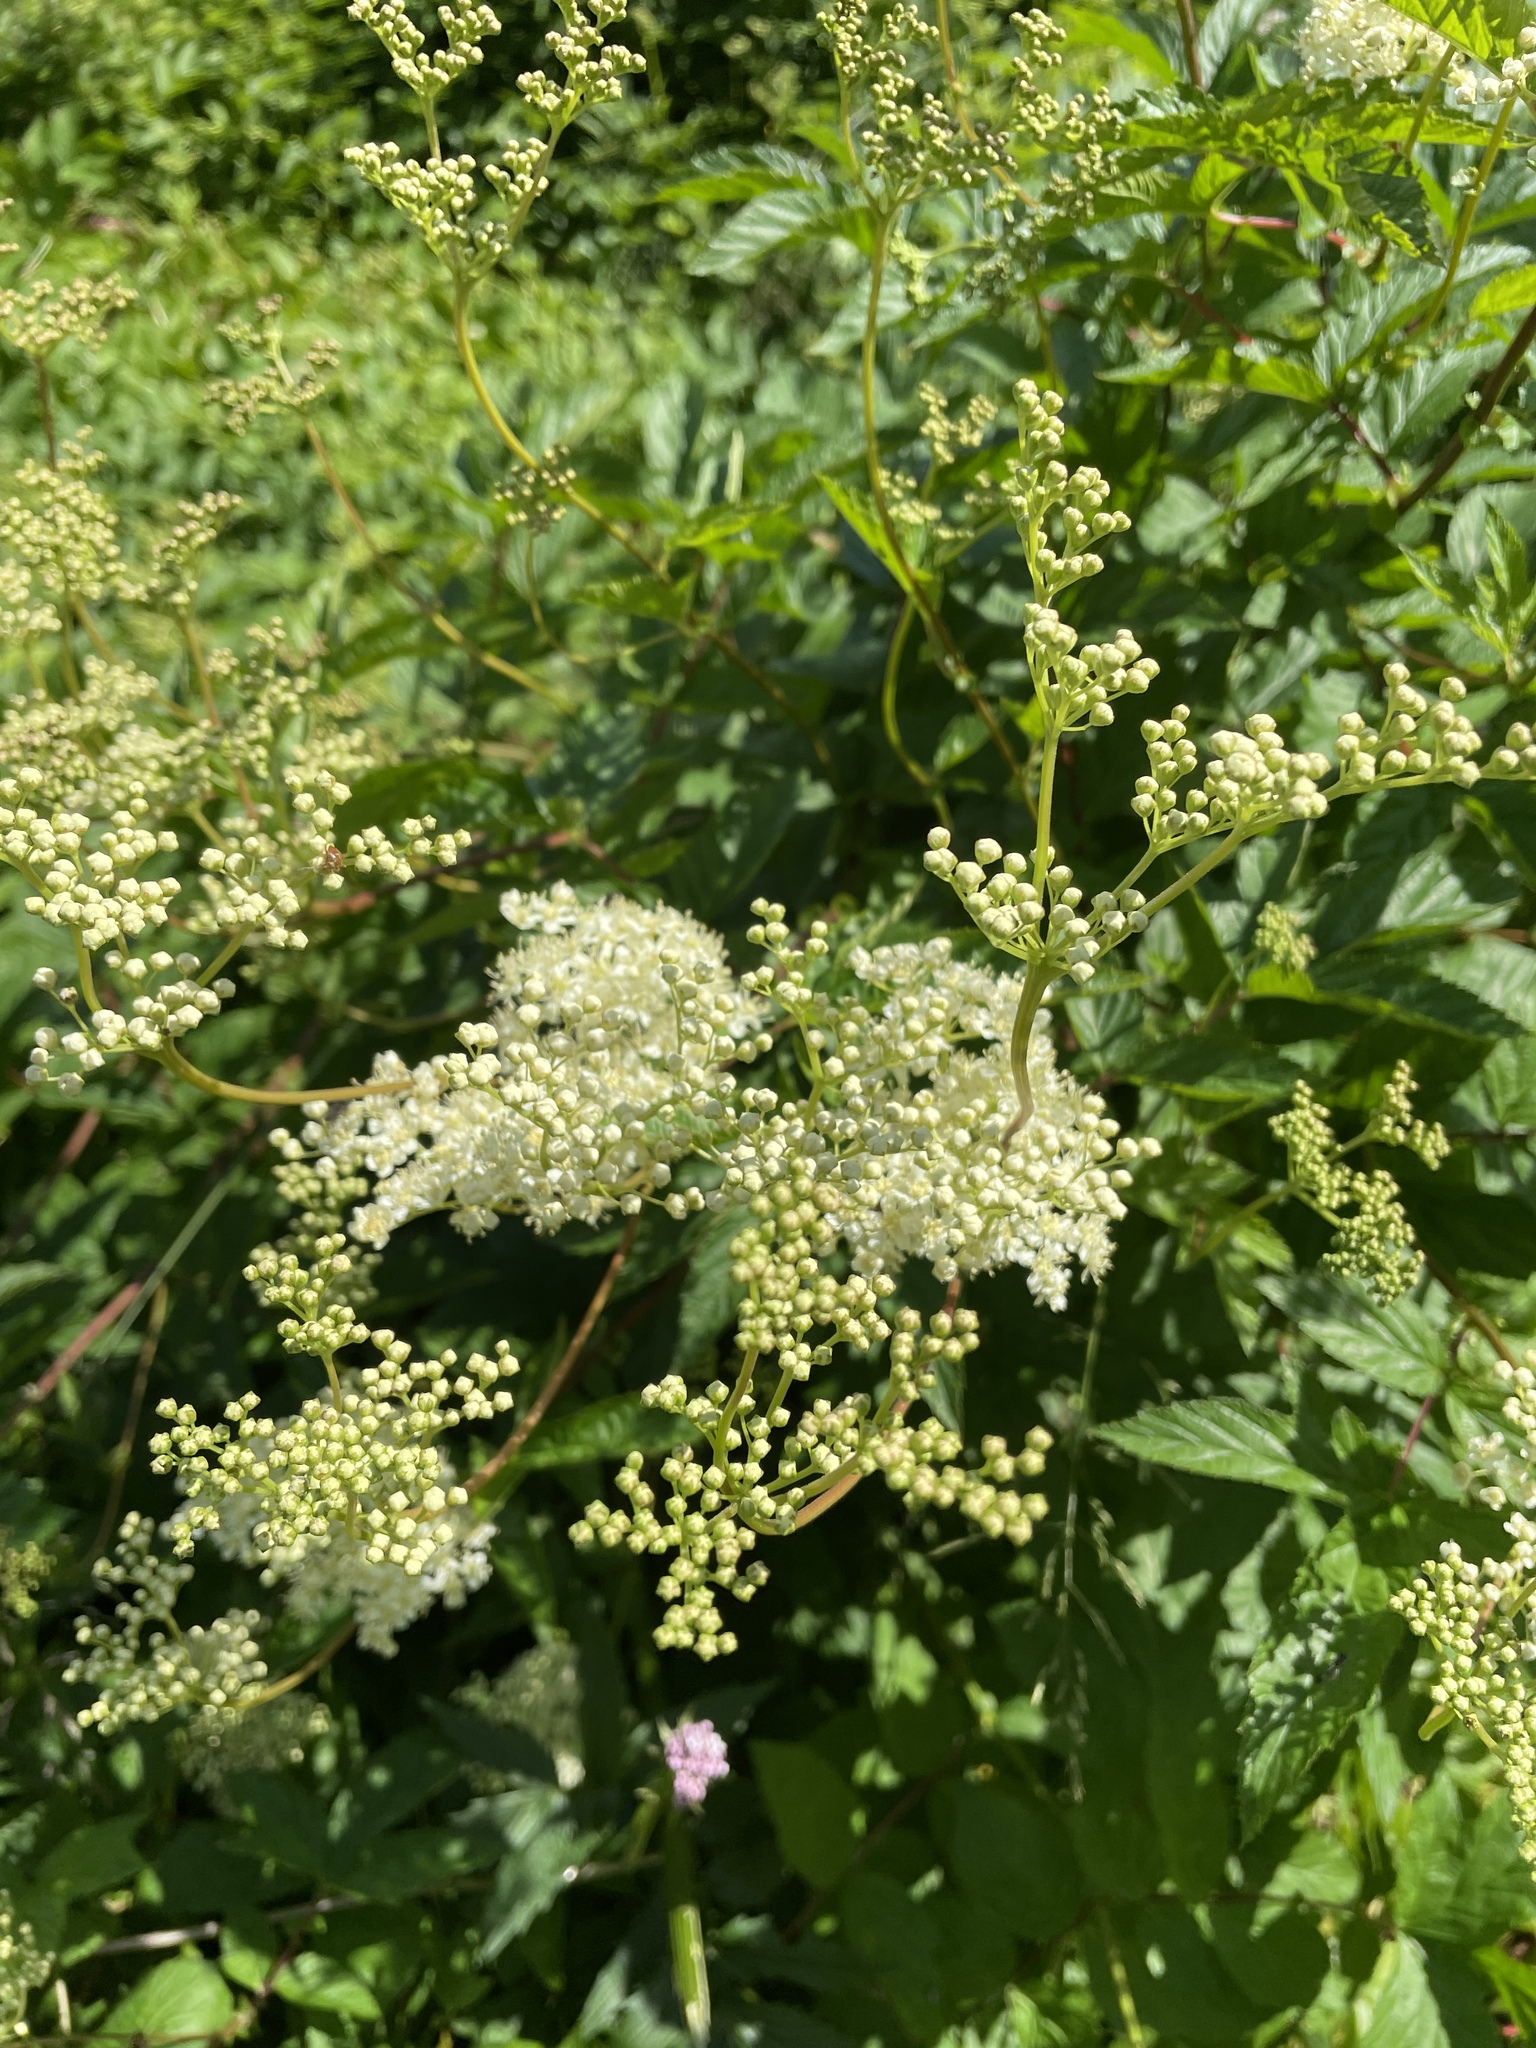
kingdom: Plantae
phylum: Tracheophyta
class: Magnoliopsida
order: Rosales
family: Rosaceae
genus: Filipendula
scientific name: Filipendula ulmaria
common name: Meadowsweet
